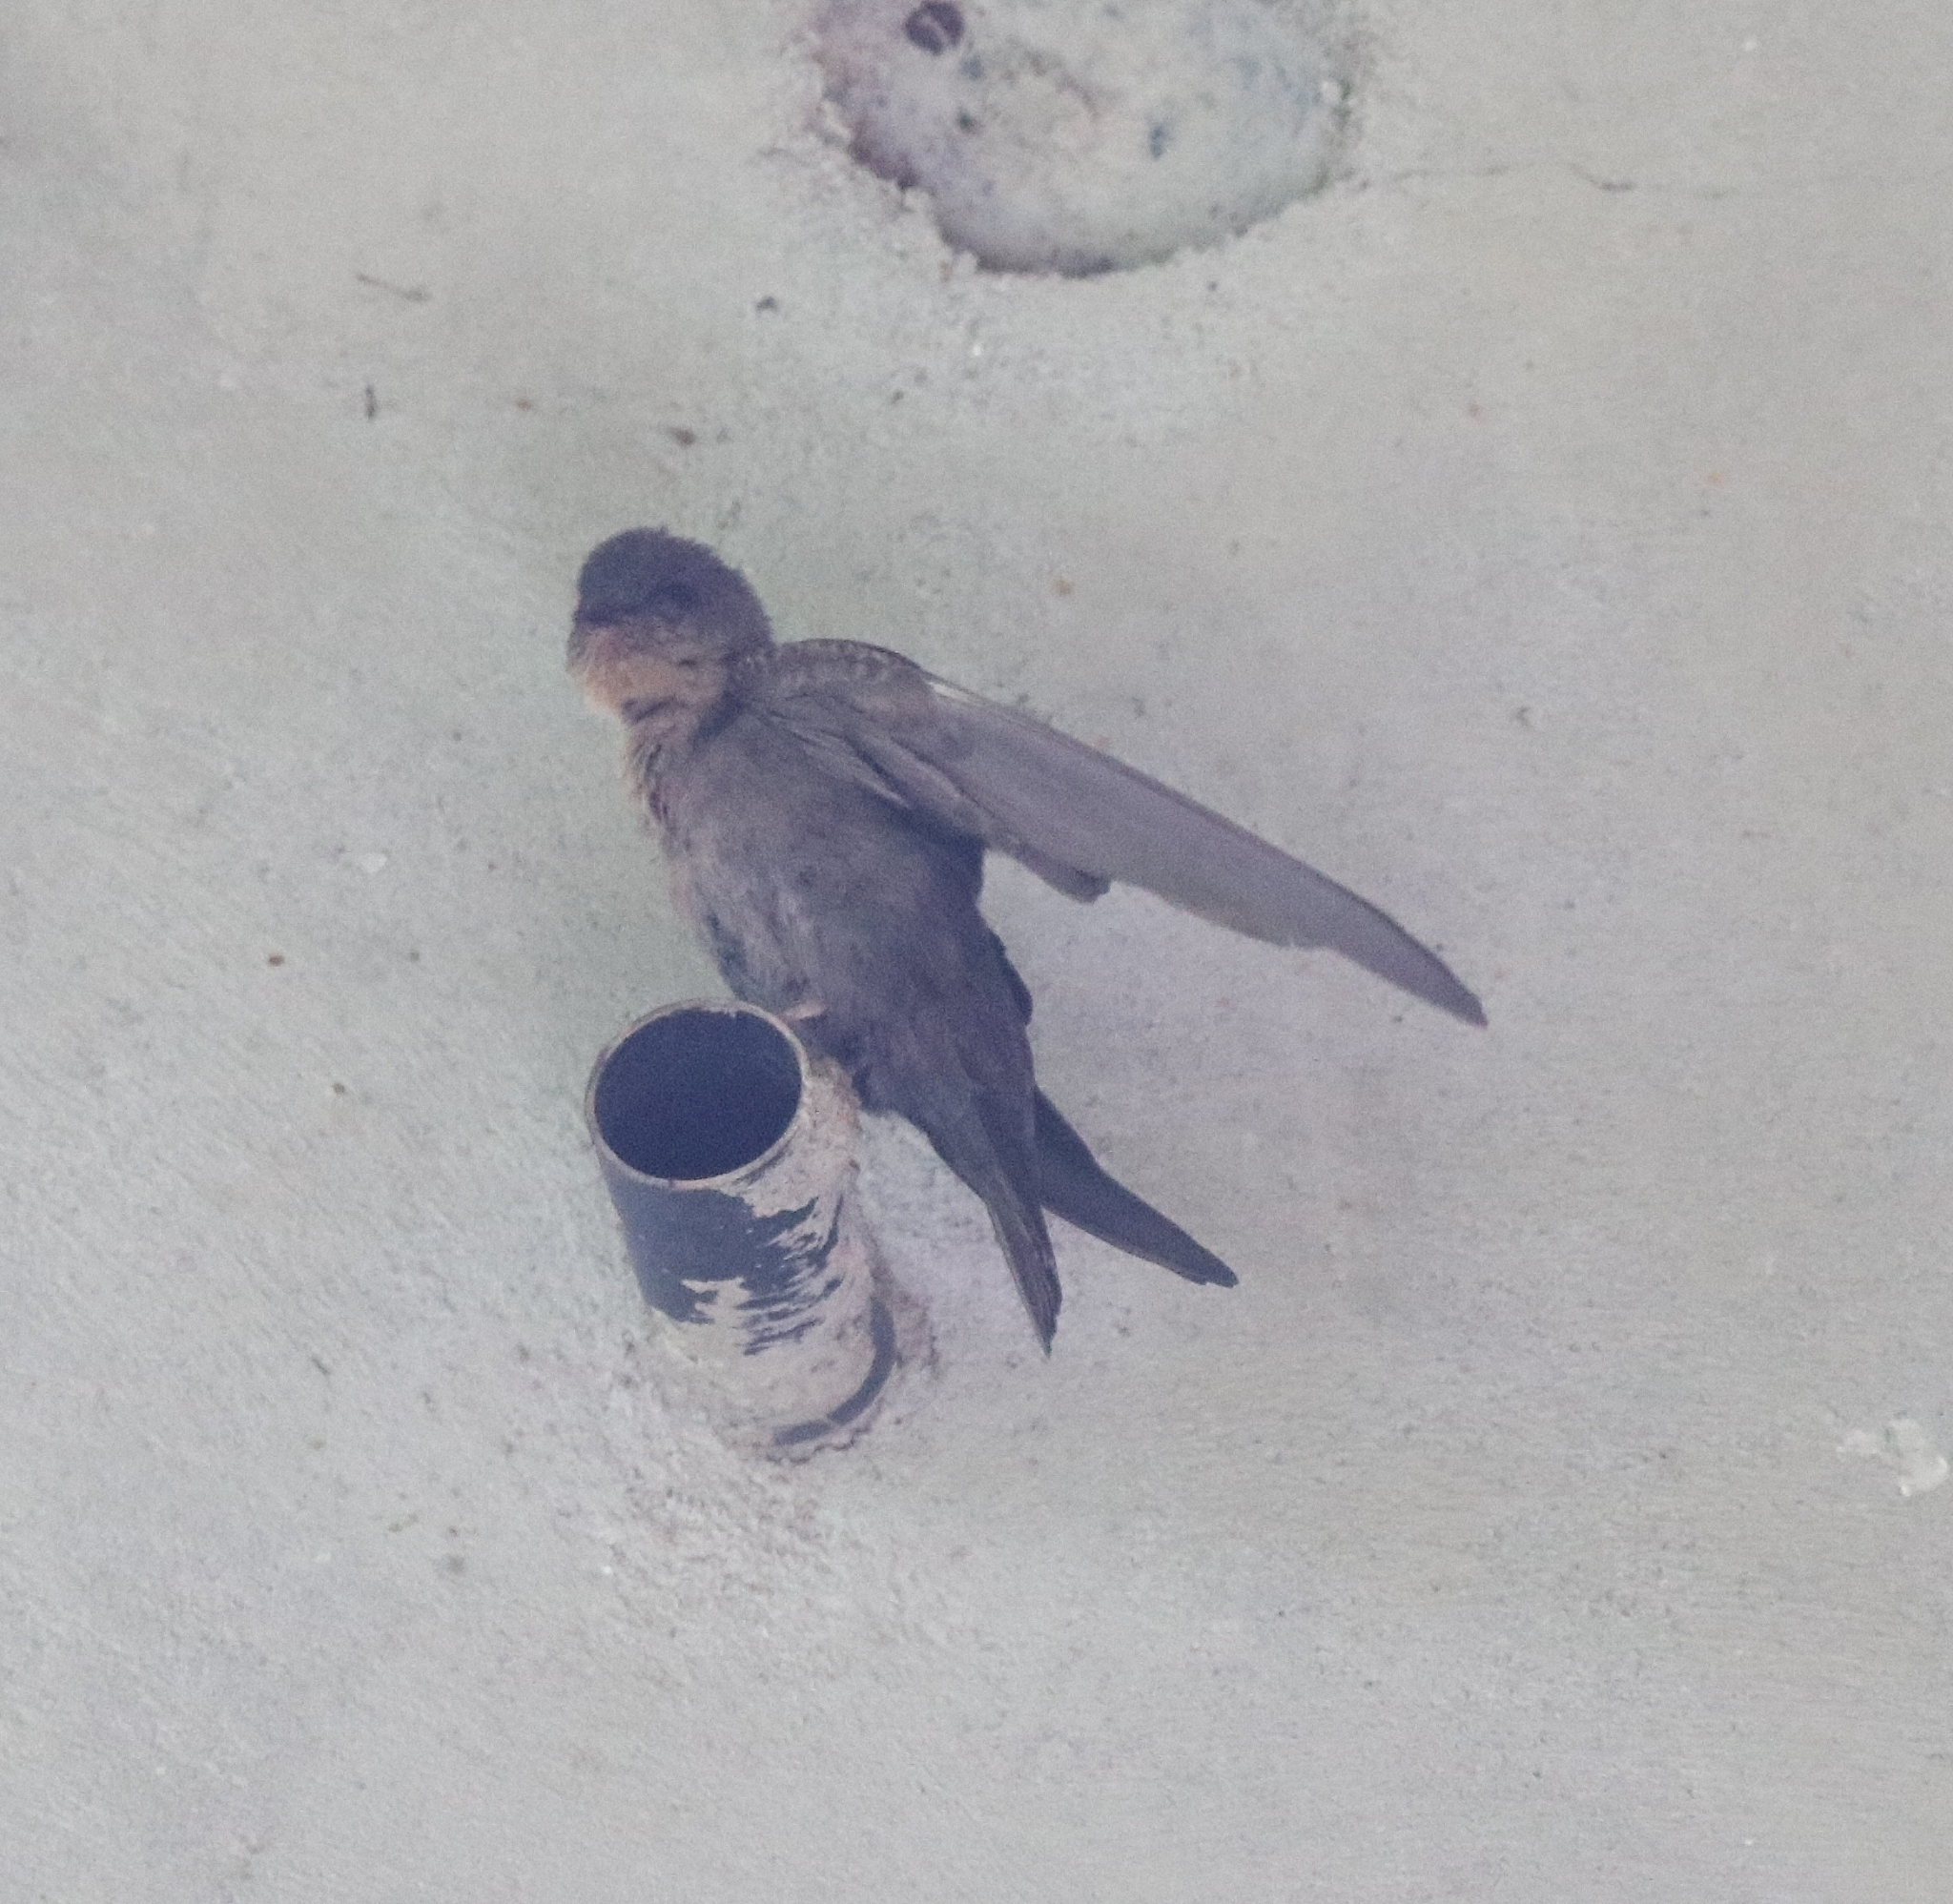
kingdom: Animalia
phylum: Chordata
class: Aves
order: Passeriformes
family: Hirundinidae
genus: Ptyonoprogne
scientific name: Ptyonoprogne concolor
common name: Dusky crag-martin
